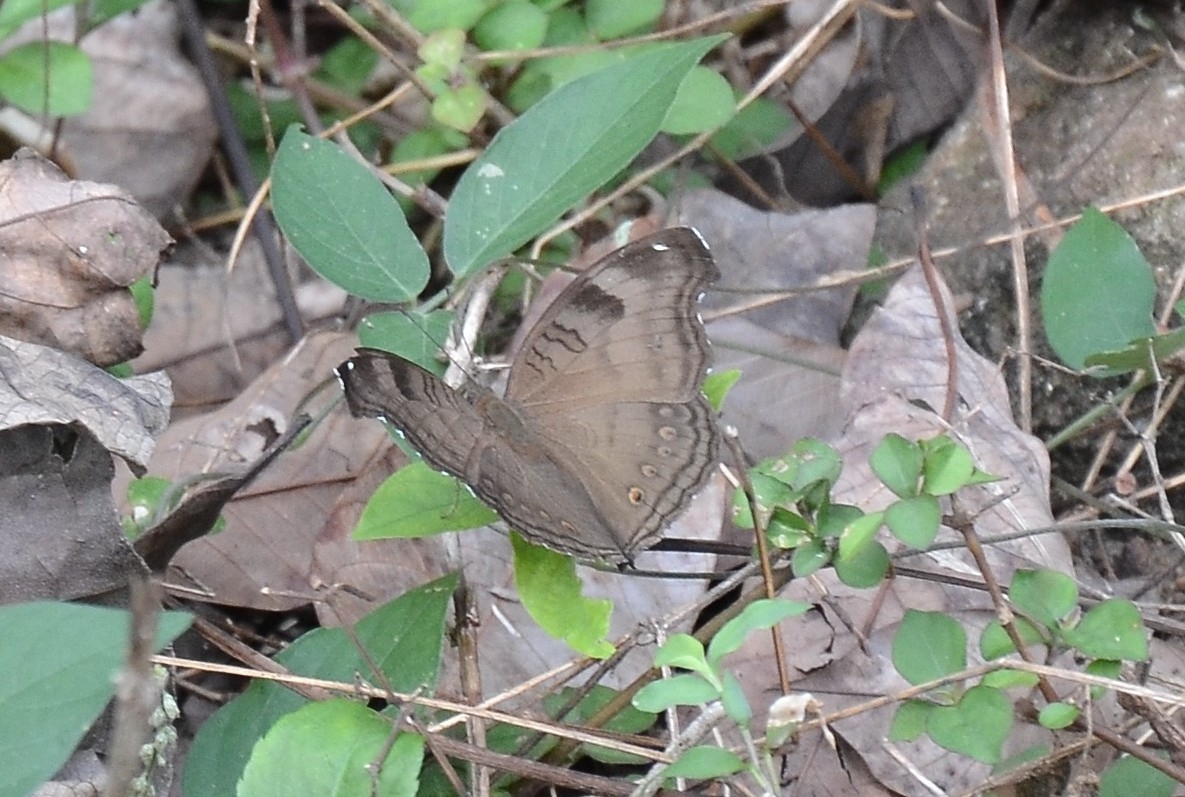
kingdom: Animalia
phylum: Arthropoda
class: Insecta
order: Lepidoptera
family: Nymphalidae
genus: Junonia
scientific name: Junonia iphita
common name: Chocolate pansy
